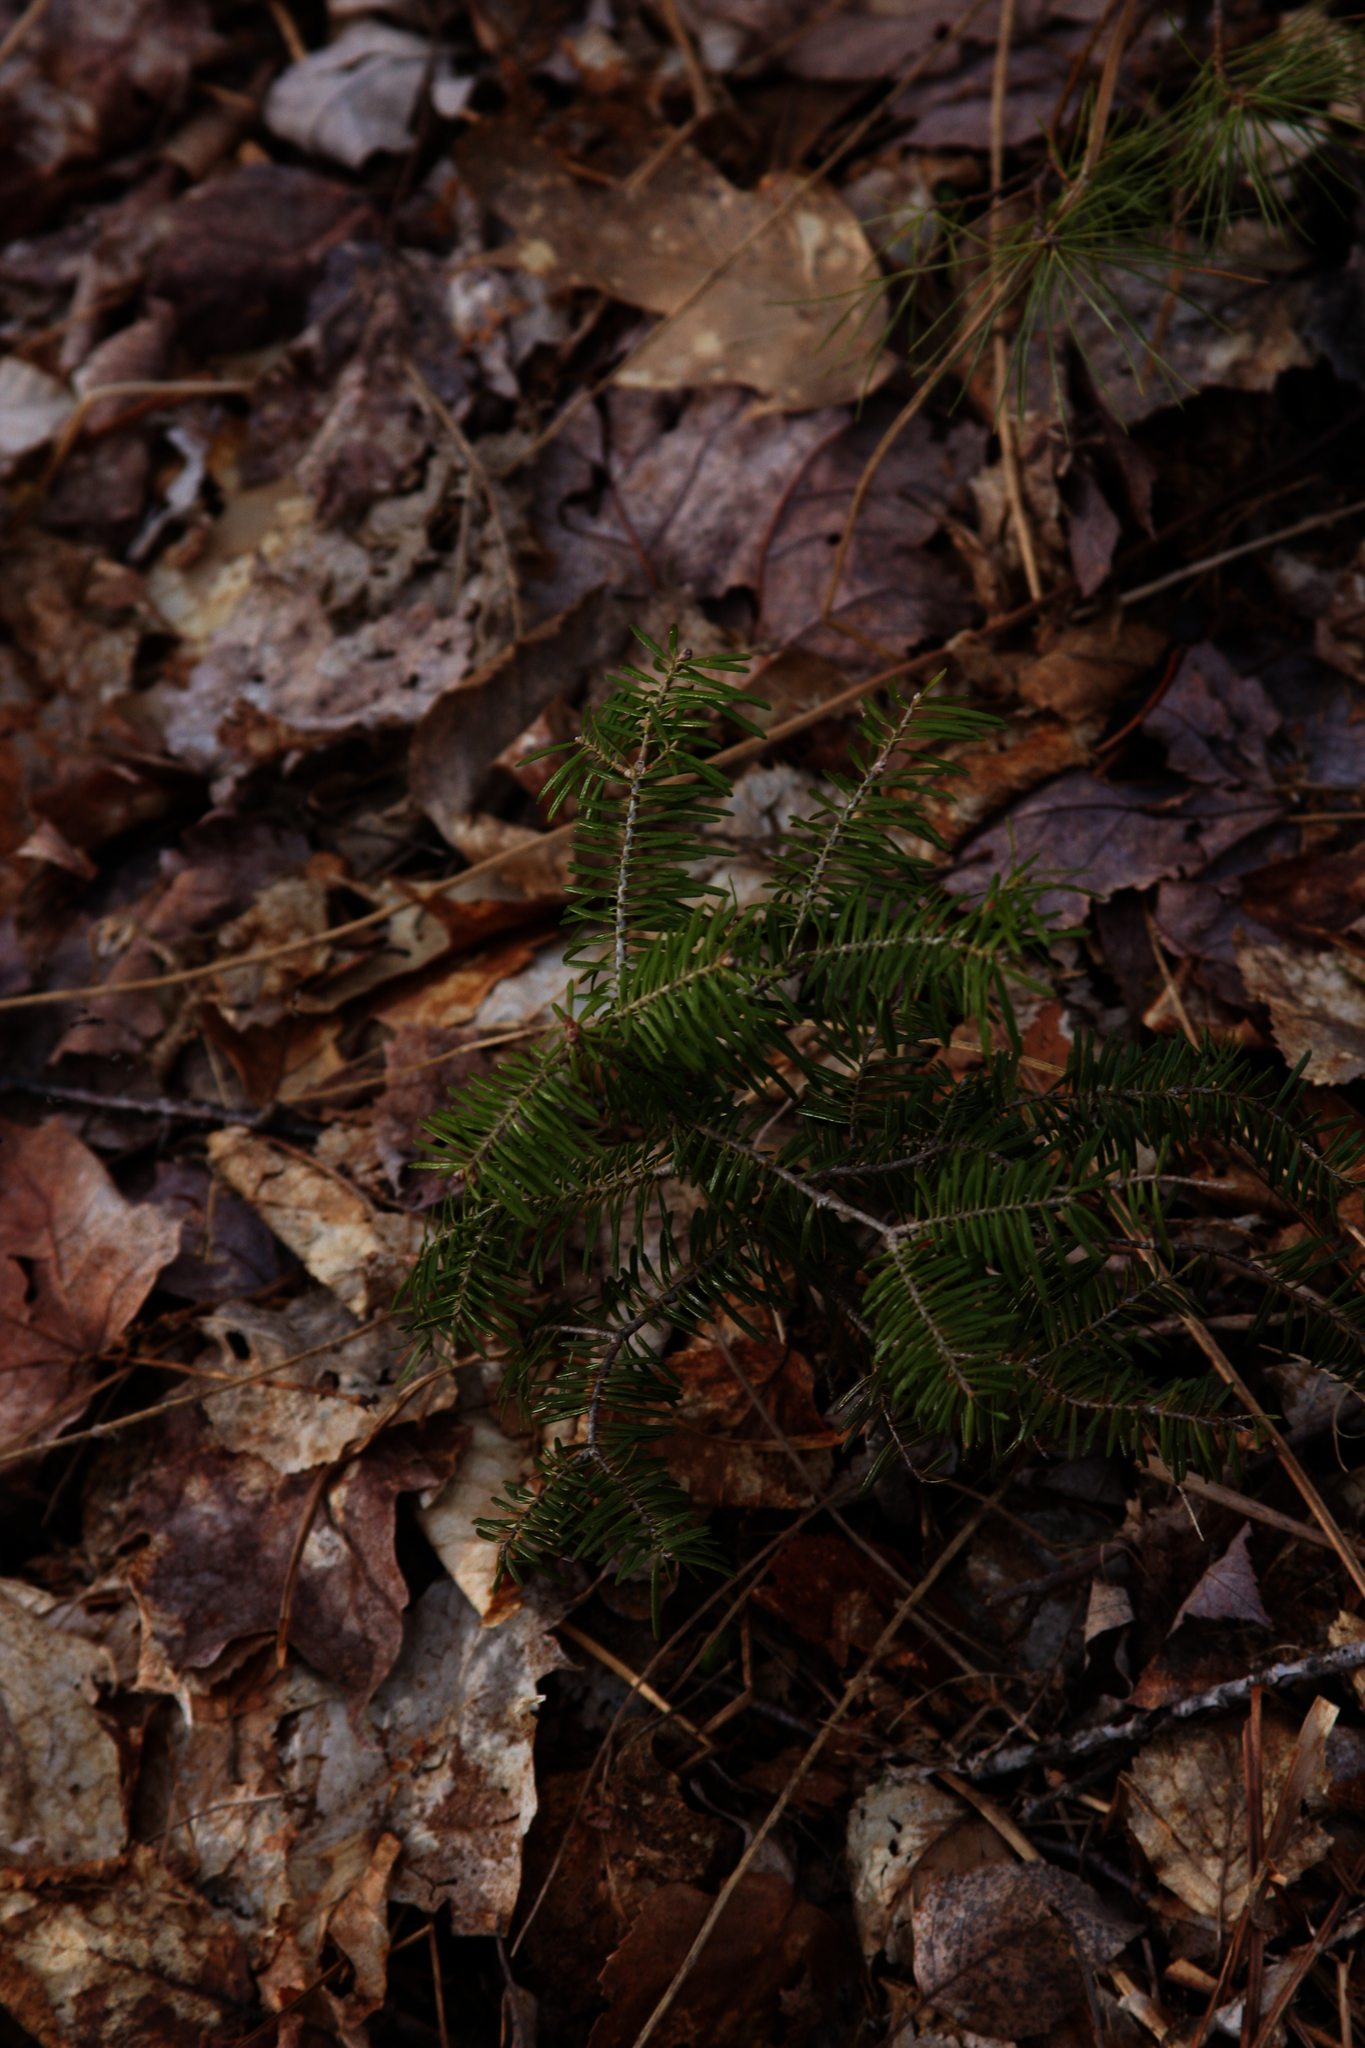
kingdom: Plantae
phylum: Tracheophyta
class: Pinopsida
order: Pinales
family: Pinaceae
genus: Abies
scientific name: Abies balsamea
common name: Balsam fir
